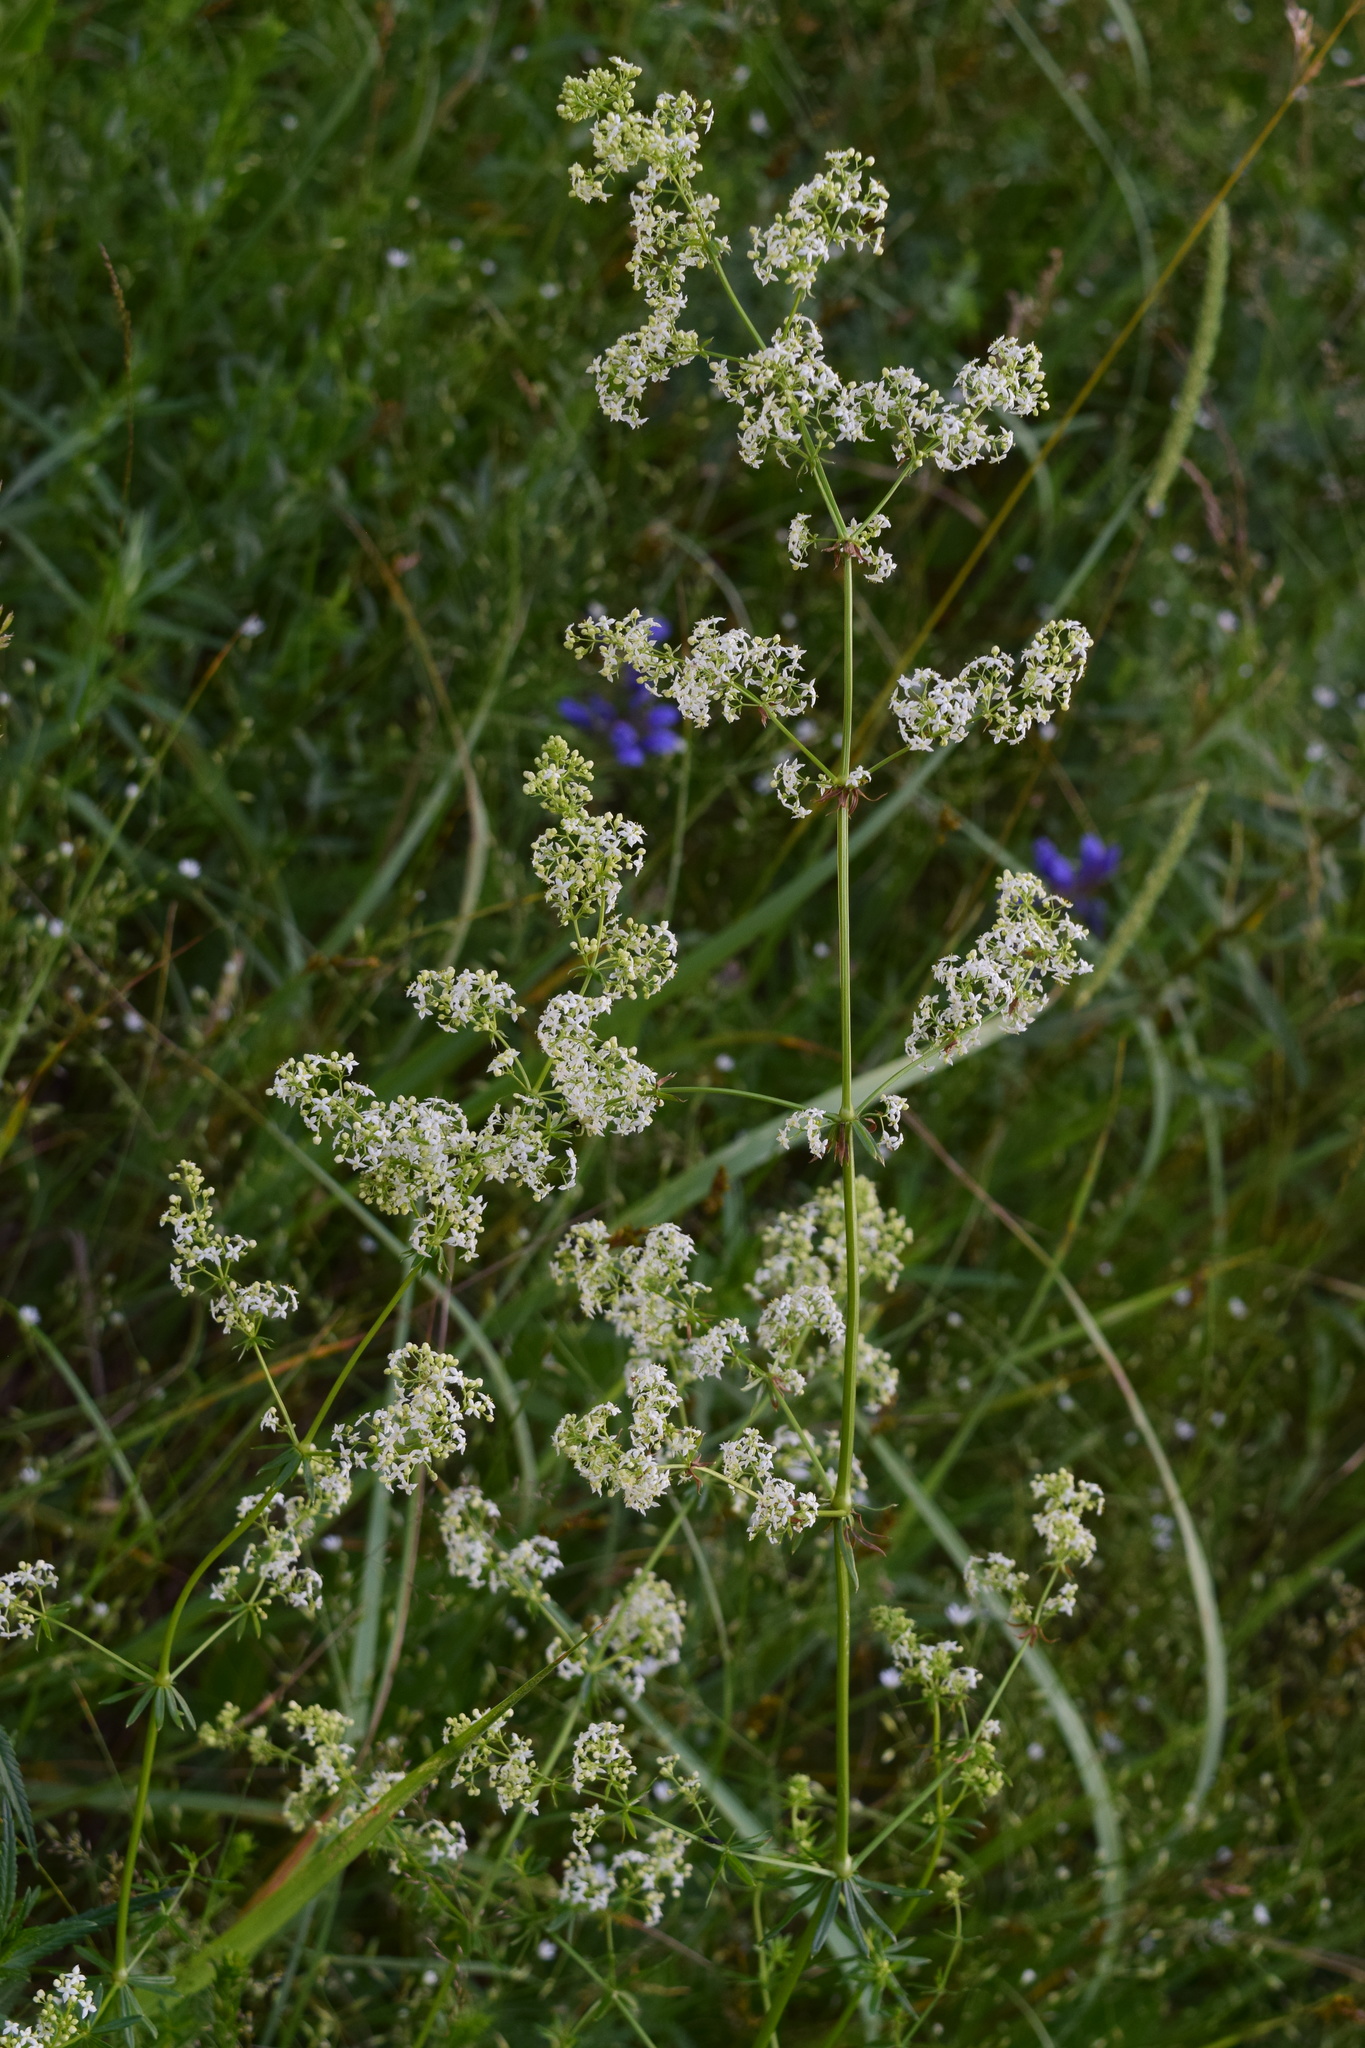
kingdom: Plantae
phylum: Tracheophyta
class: Magnoliopsida
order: Gentianales
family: Rubiaceae
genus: Galium
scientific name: Galium mollugo
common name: Hedge bedstraw
